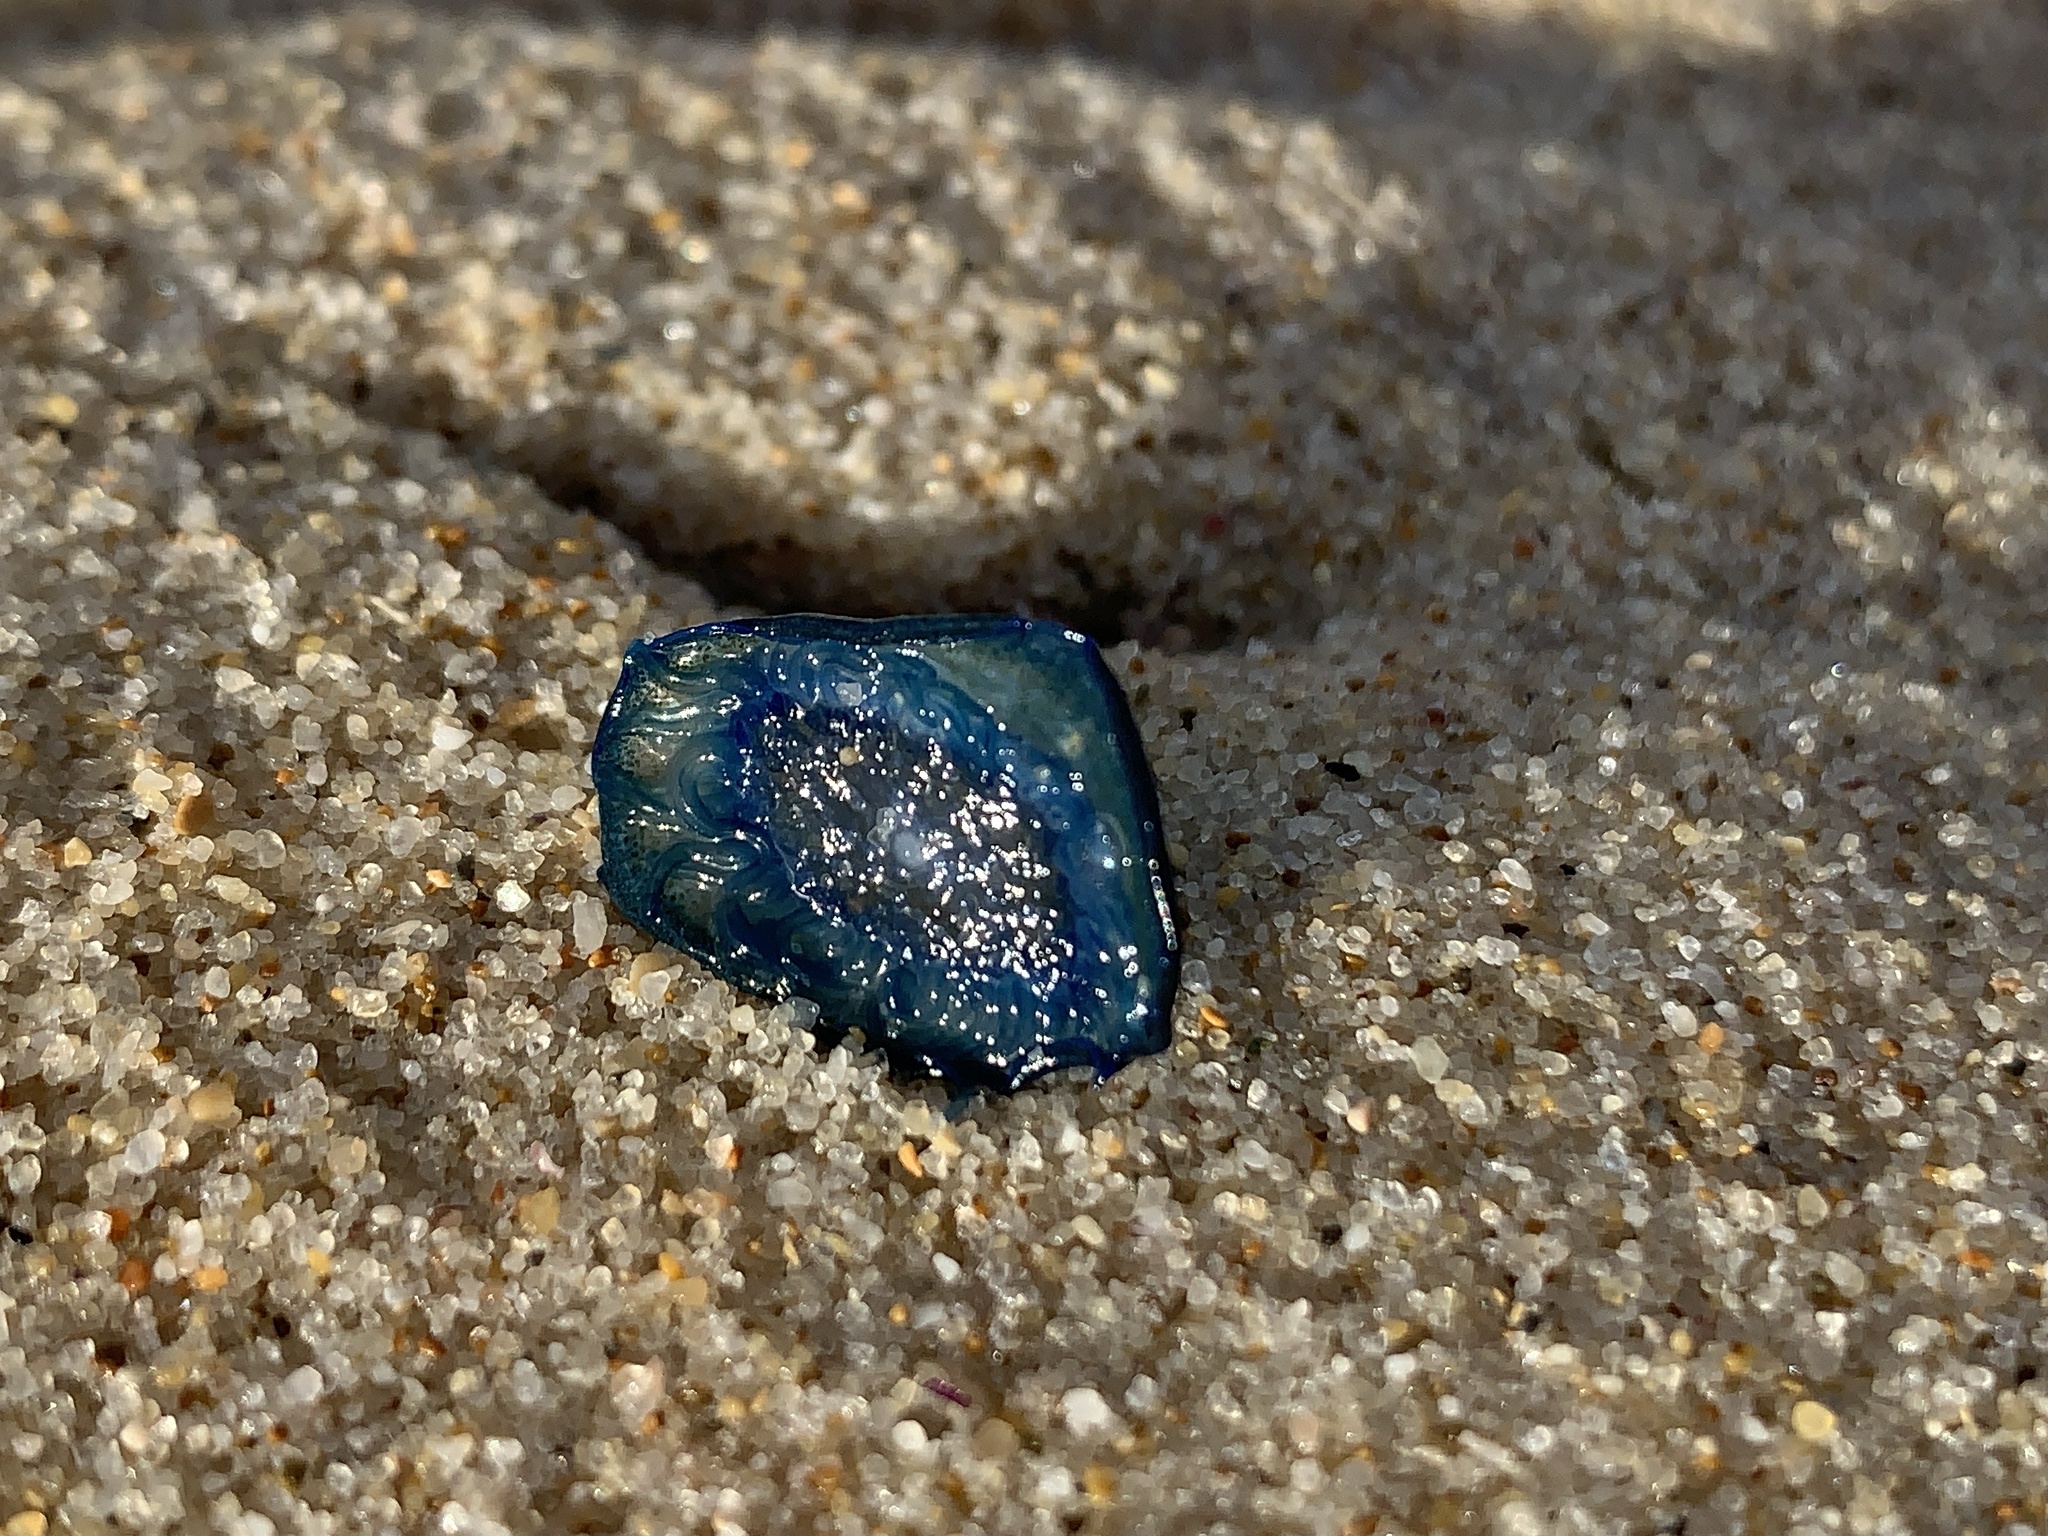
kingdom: Animalia
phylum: Cnidaria
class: Hydrozoa
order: Anthoathecata
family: Porpitidae
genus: Velella
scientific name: Velella velella
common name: By-the-wind-sailor
